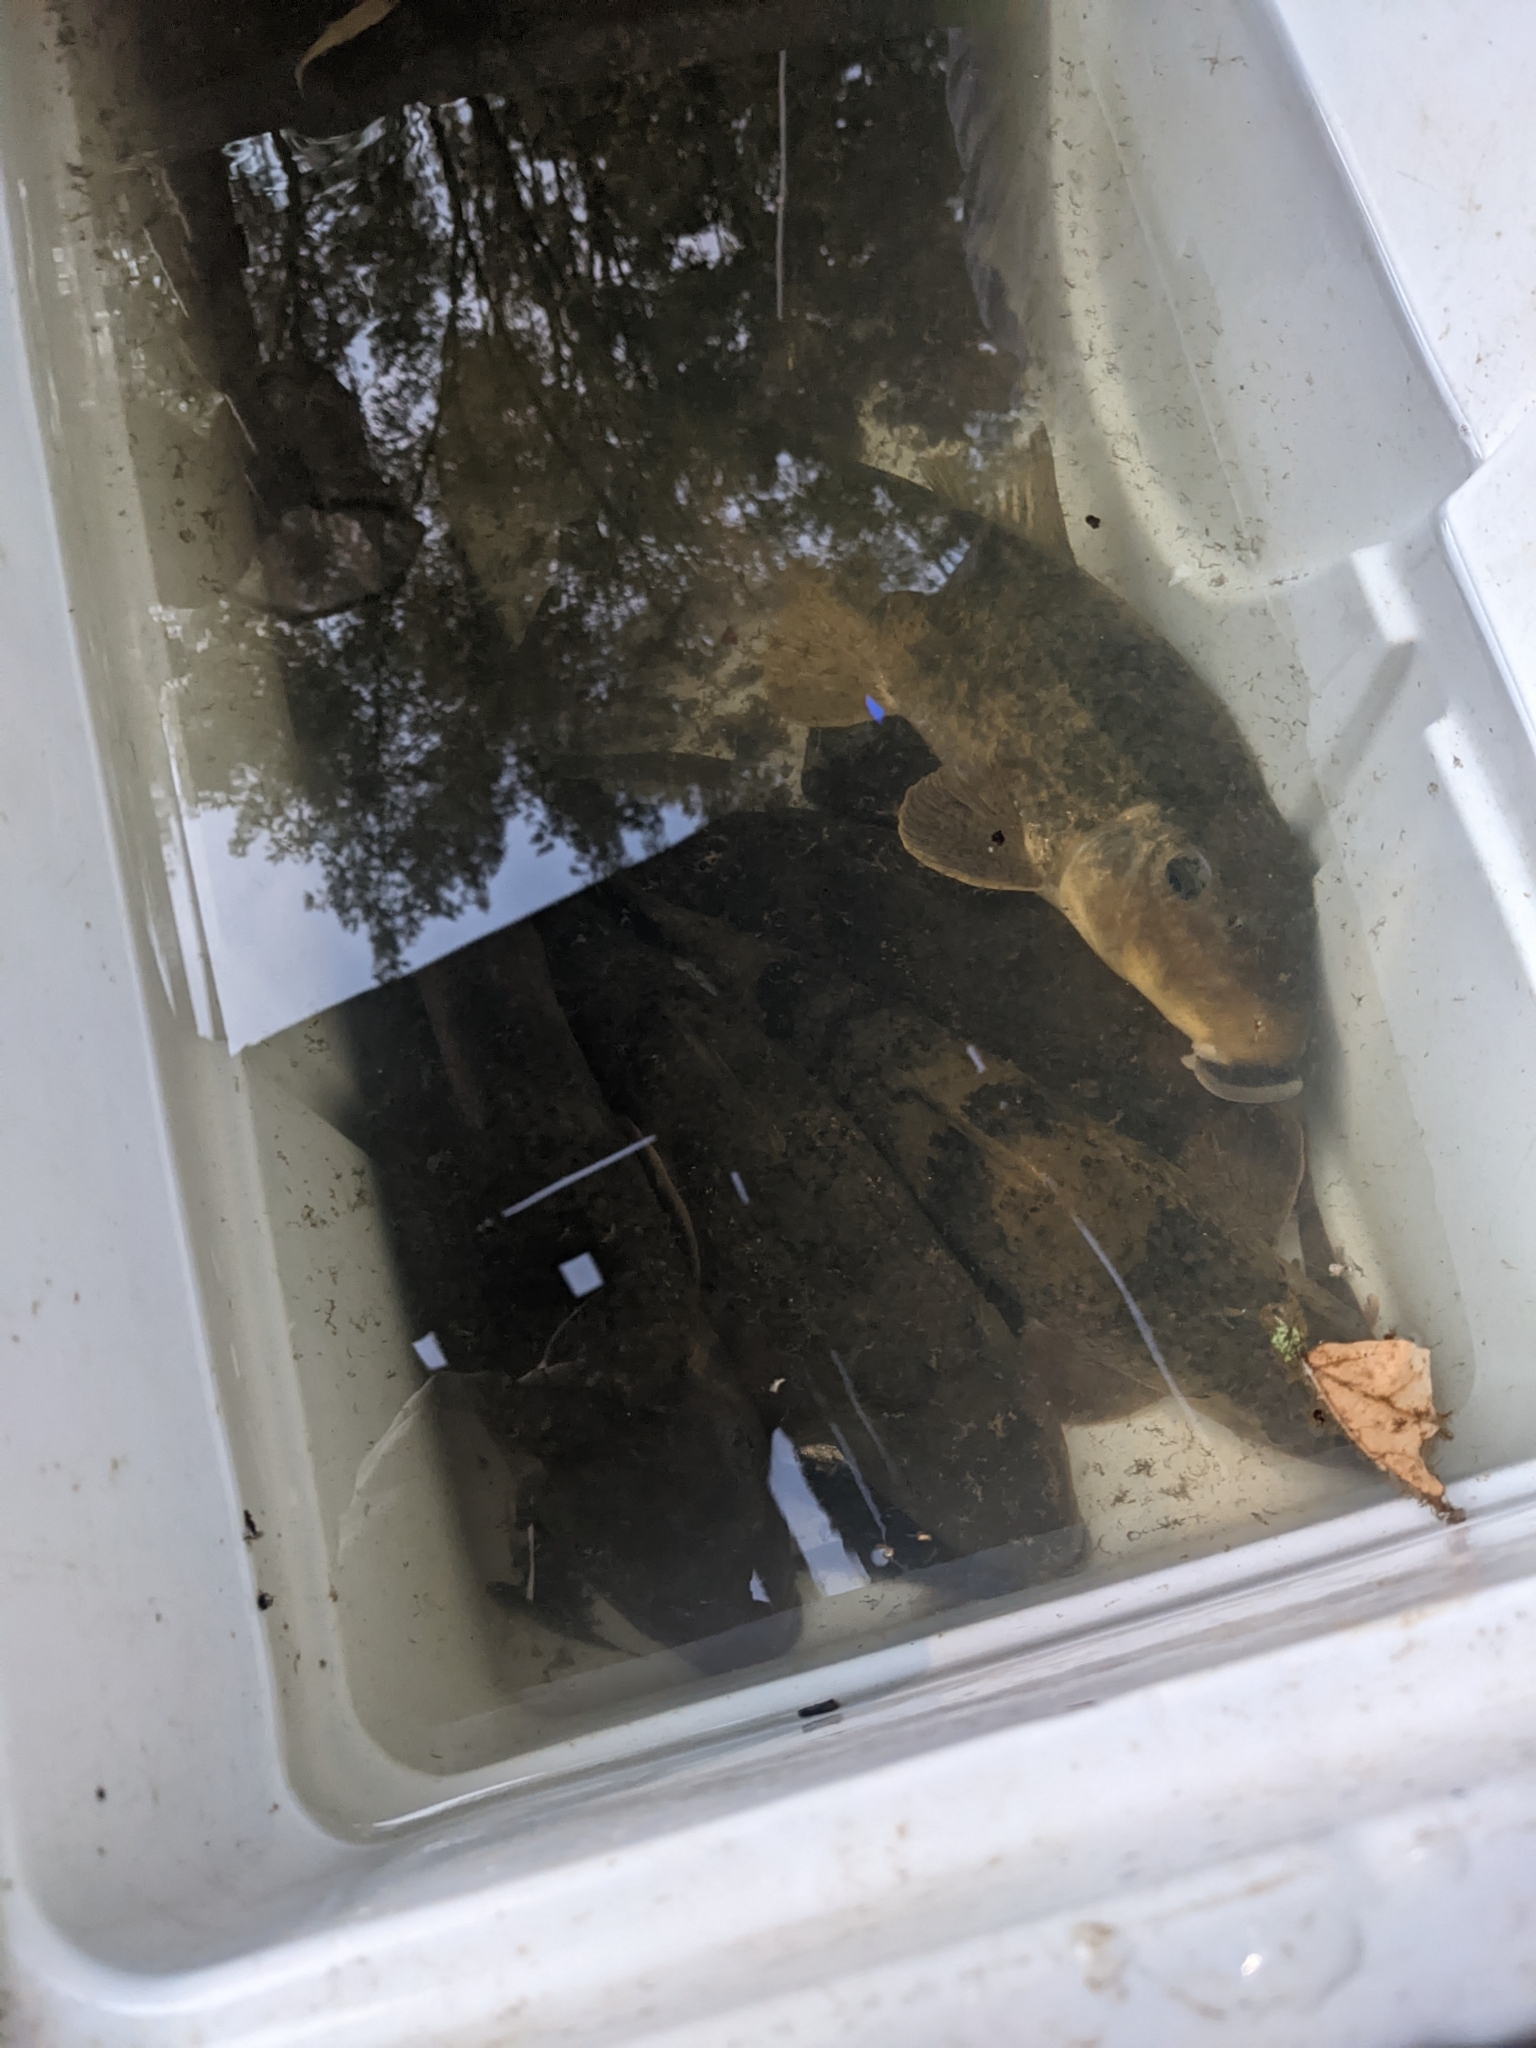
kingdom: Animalia
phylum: Chordata
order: Cypriniformes
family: Catostomidae
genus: Hypentelium
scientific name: Hypentelium nigricans
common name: Northern hog sucker
